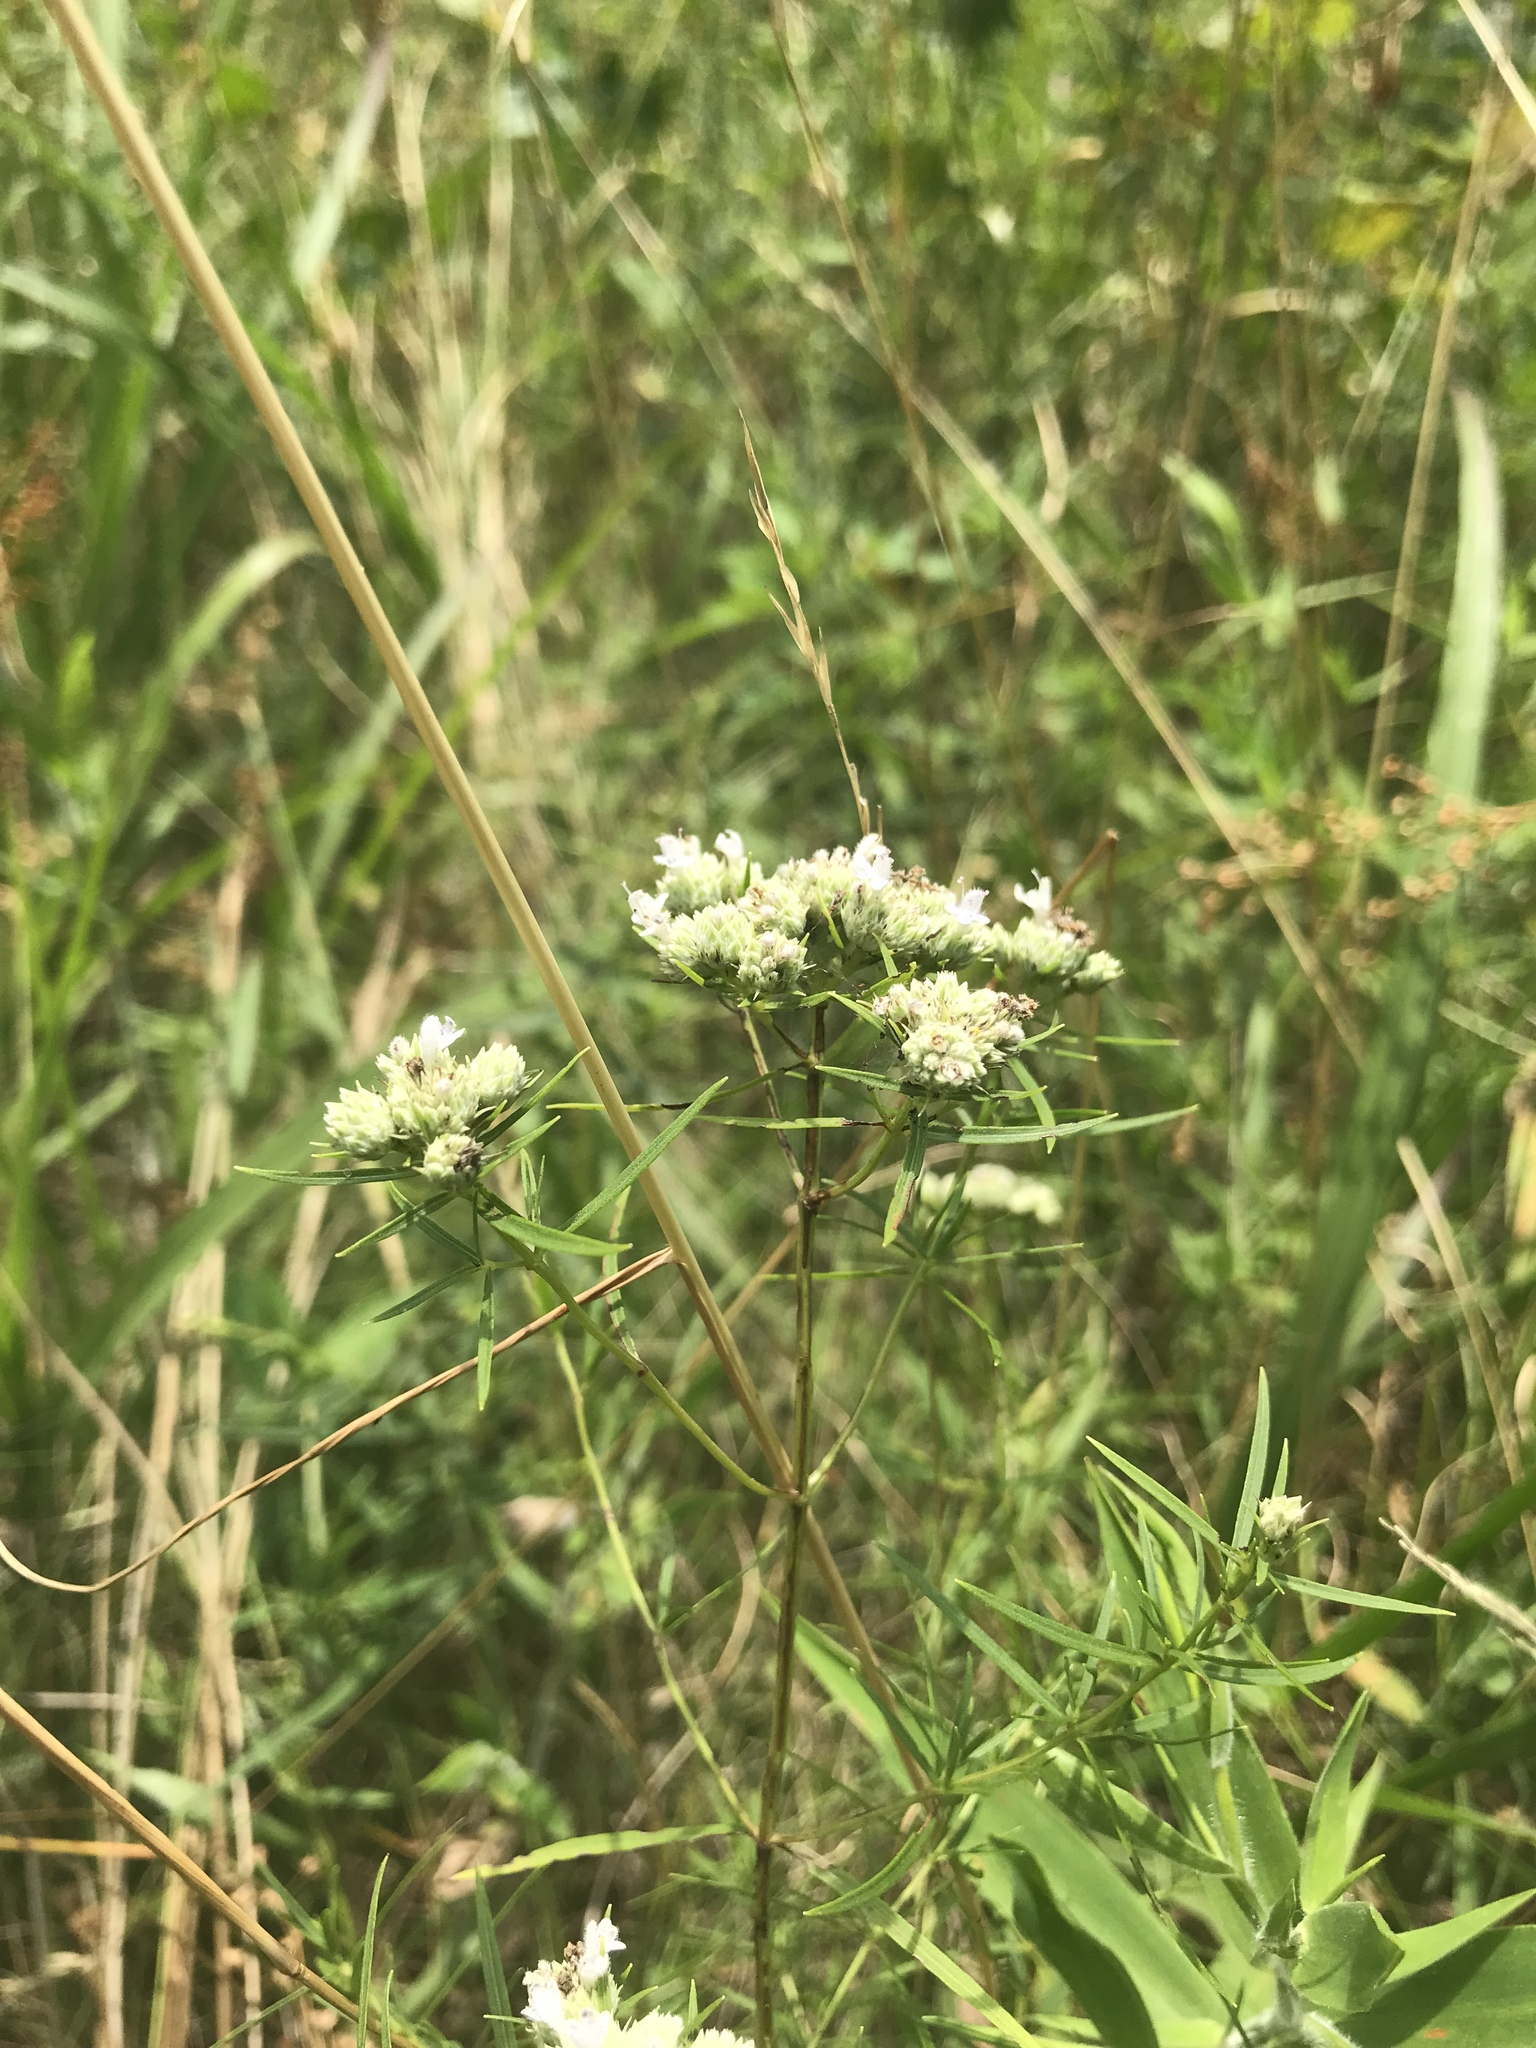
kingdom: Plantae
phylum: Tracheophyta
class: Magnoliopsida
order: Lamiales
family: Lamiaceae
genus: Pycnanthemum
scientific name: Pycnanthemum tenuifolium
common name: Narrow-leaf mountain-mint
